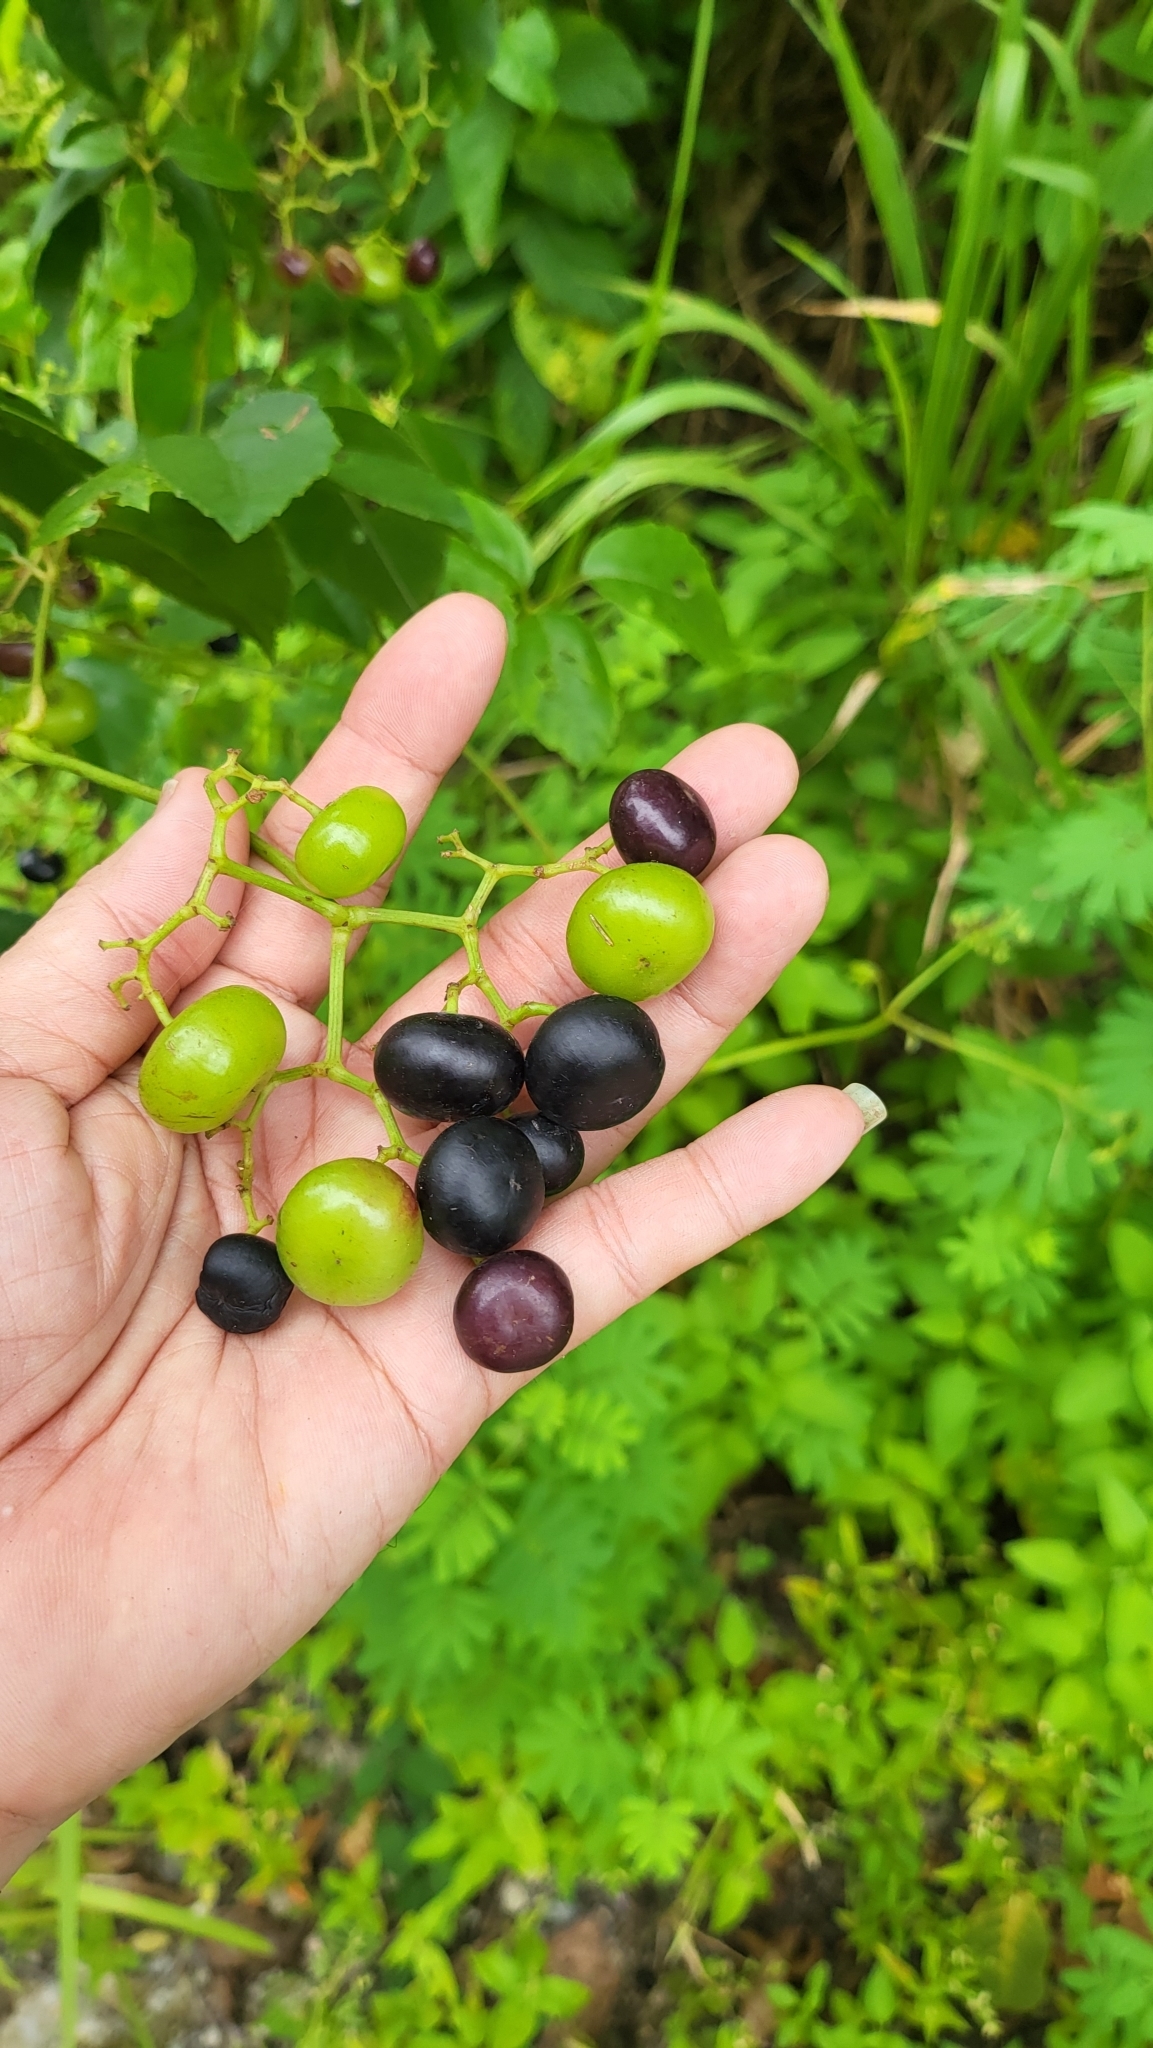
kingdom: Plantae
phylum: Tracheophyta
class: Magnoliopsida
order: Vitales
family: Vitaceae
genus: Causonis
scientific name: Causonis trifolia
